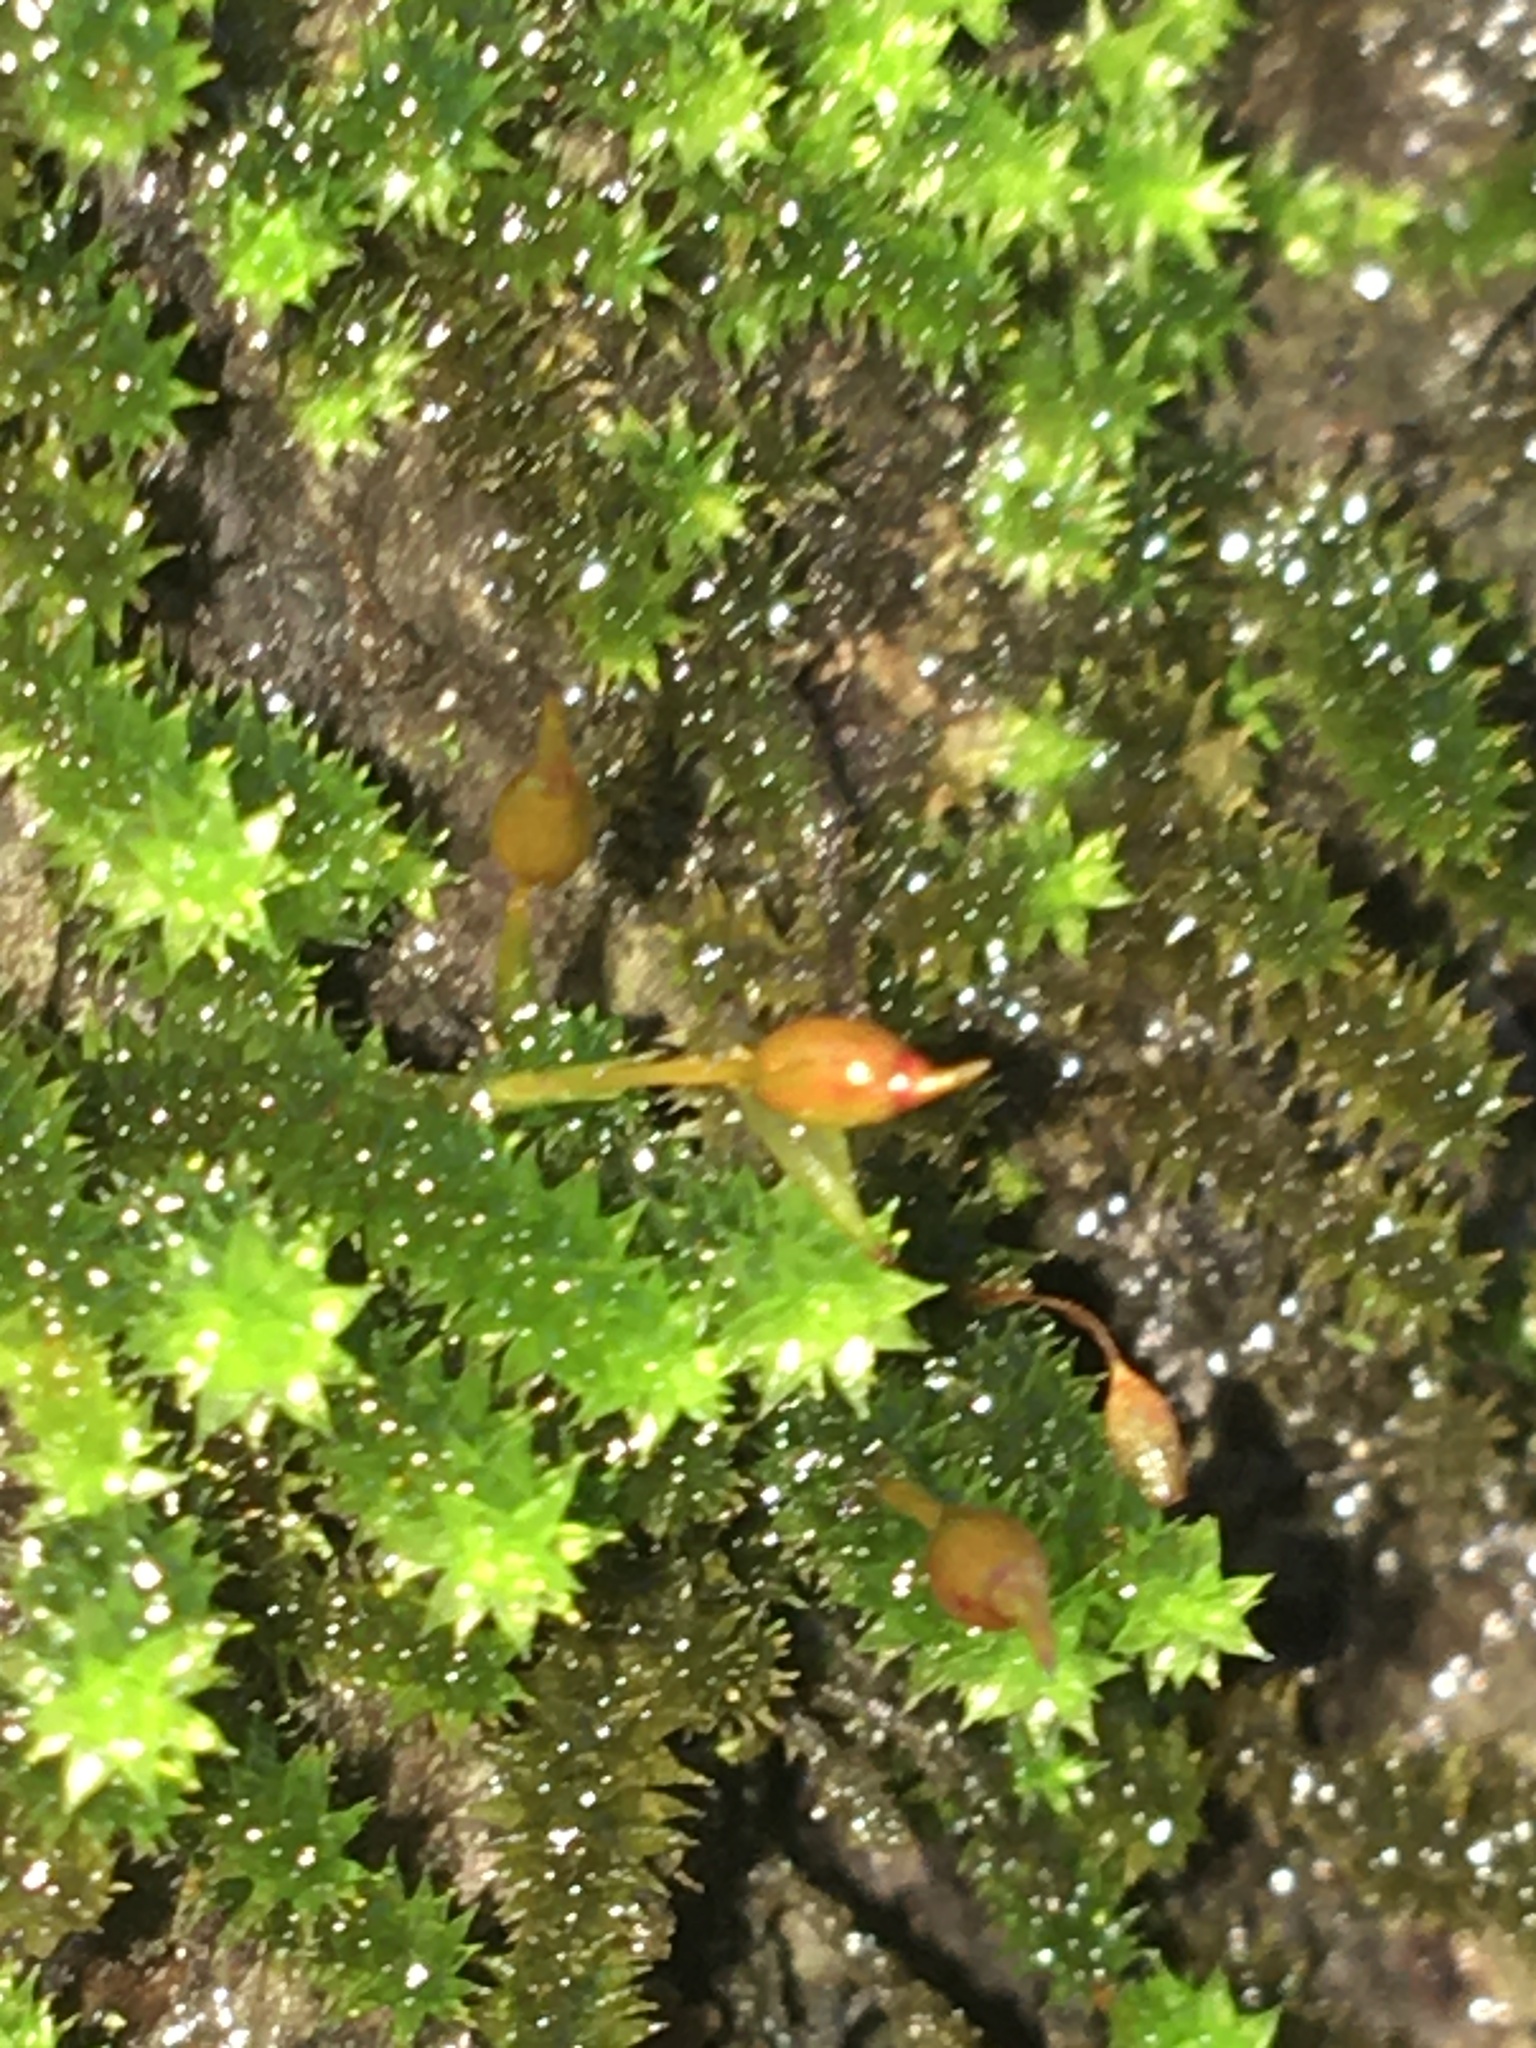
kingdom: Plantae
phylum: Bryophyta
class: Bryopsida
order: Hypnales
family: Leucodontaceae
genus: Leucodon
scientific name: Leucodon julaceus
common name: Smooth hook moss
